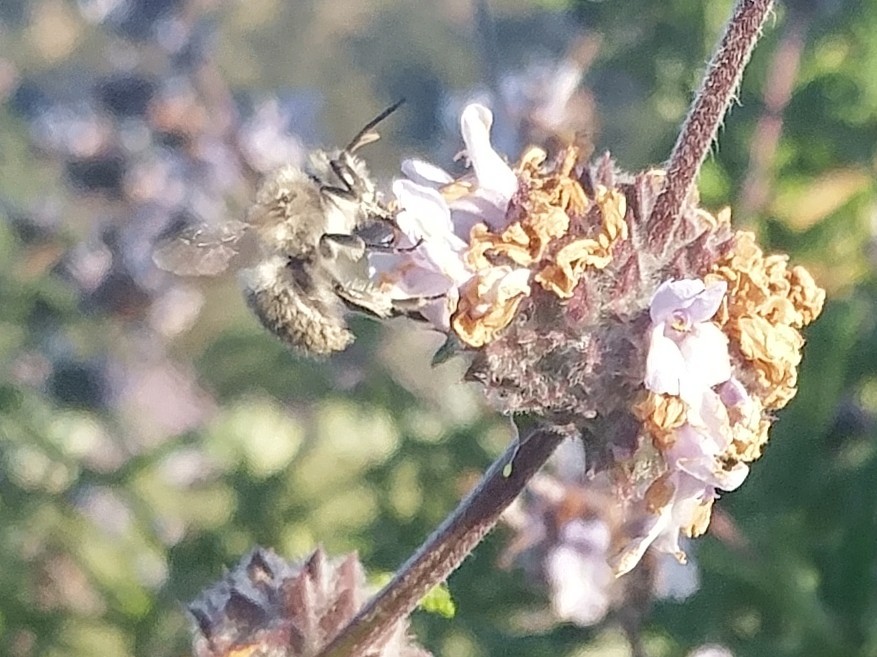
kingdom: Animalia
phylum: Arthropoda
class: Insecta
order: Hymenoptera
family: Apidae
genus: Habropoda
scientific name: Habropoda depressa
